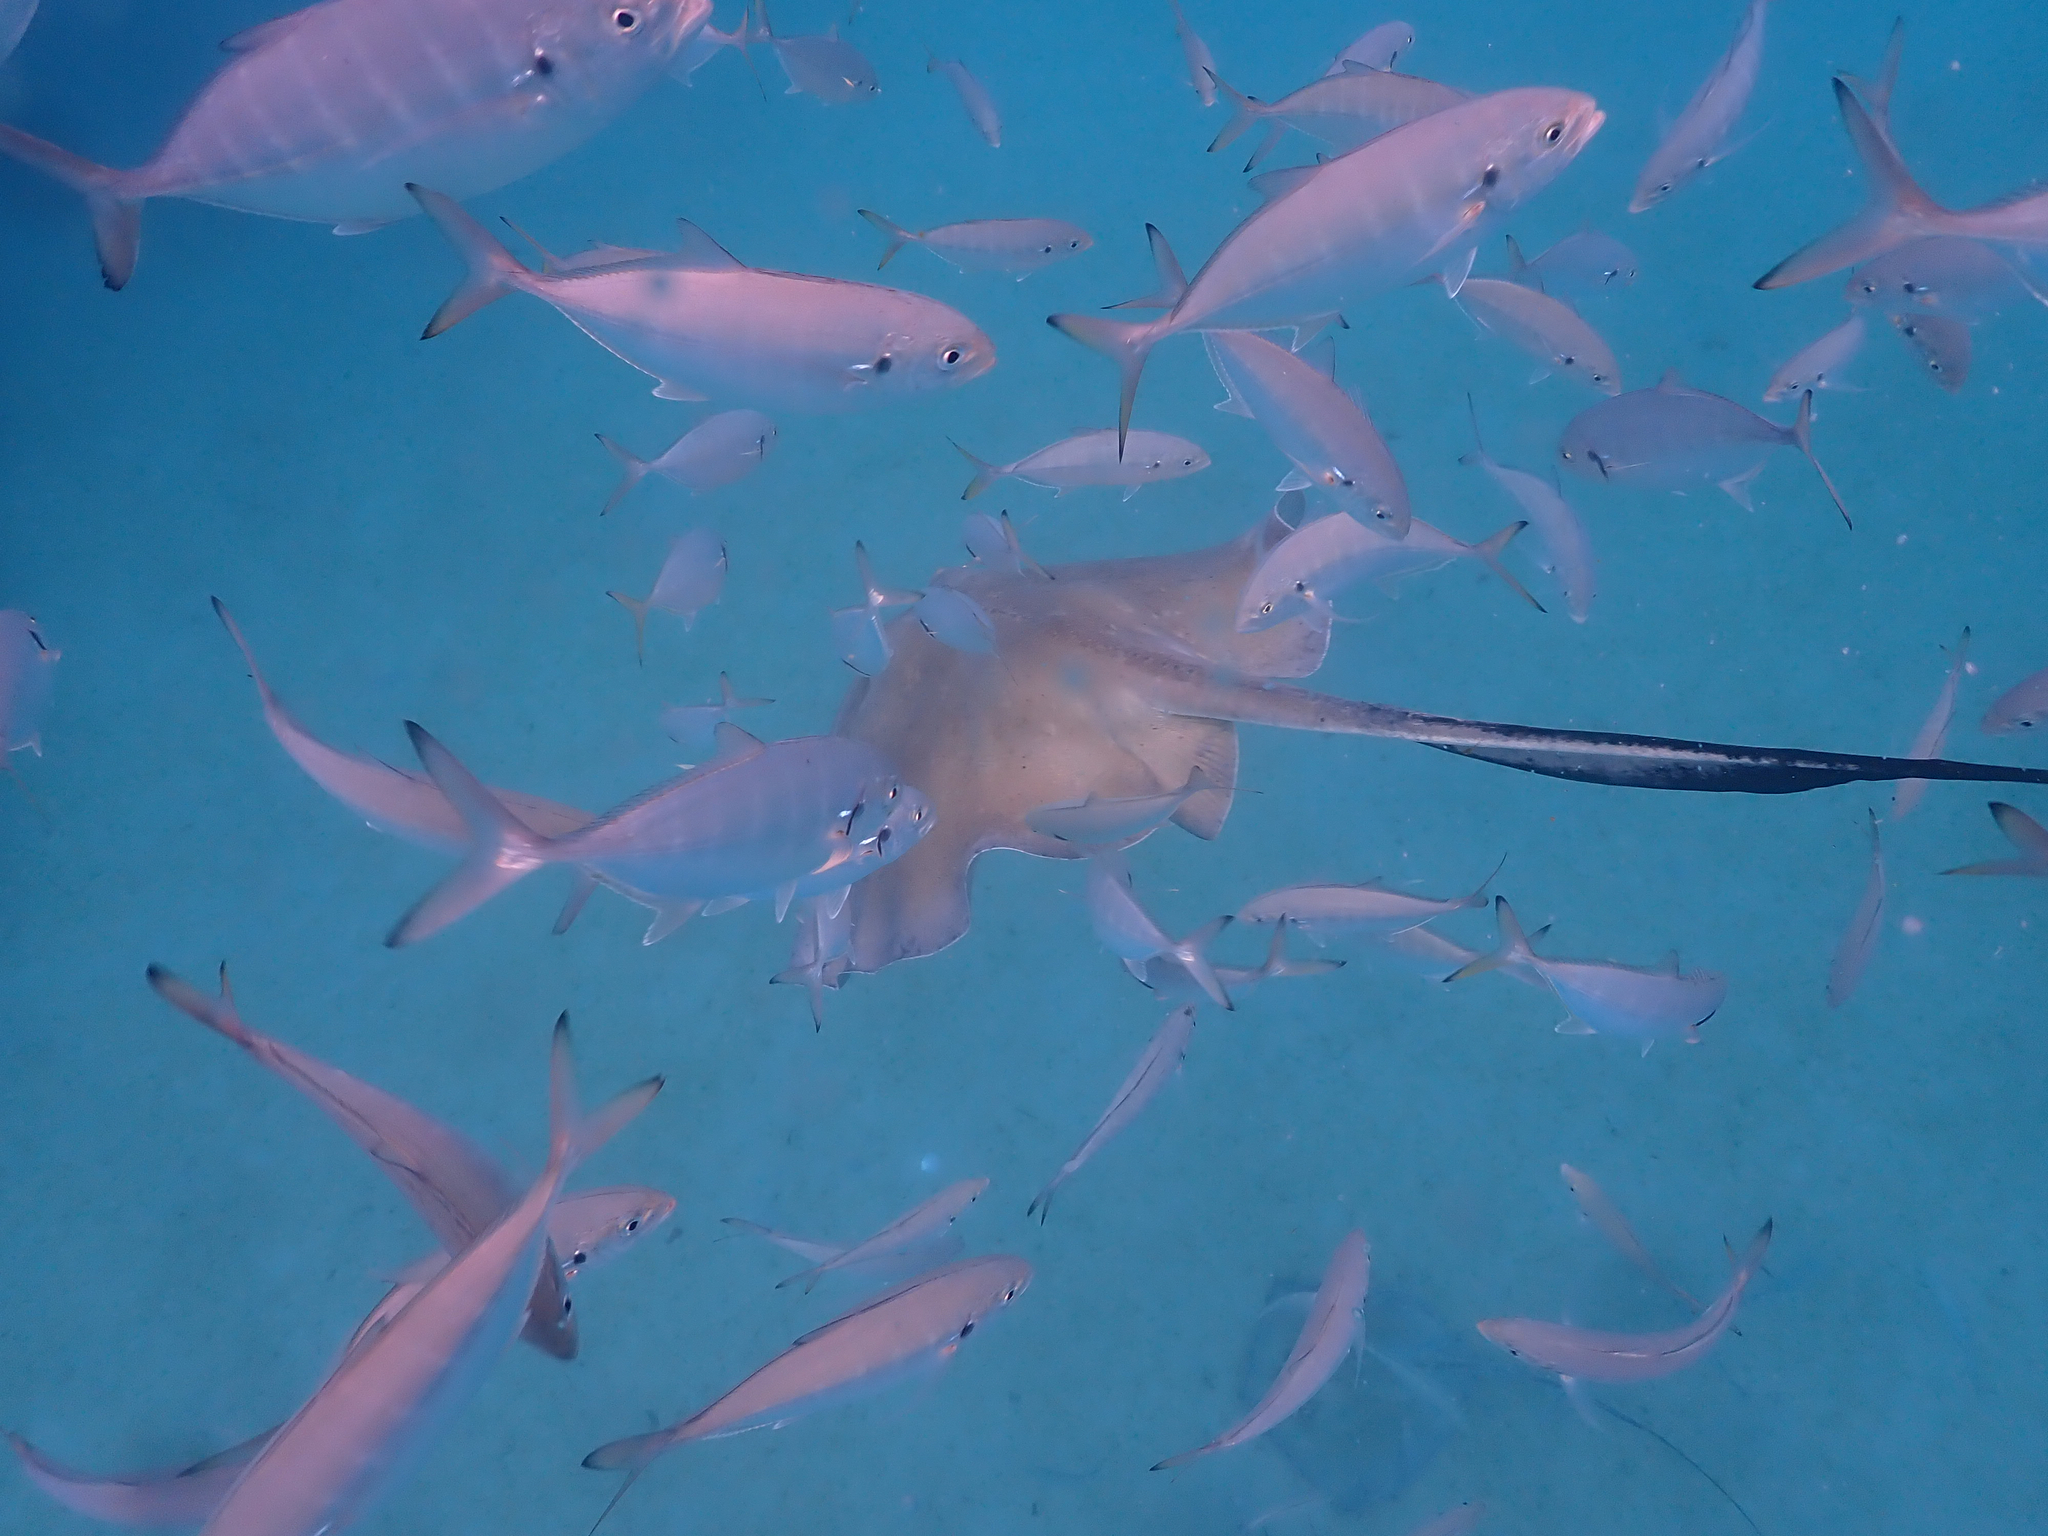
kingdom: Animalia
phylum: Chordata
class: Elasmobranchii
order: Myliobatiformes
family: Dasyatidae
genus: Hypanus
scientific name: Hypanus americanus
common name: Southern stingray
